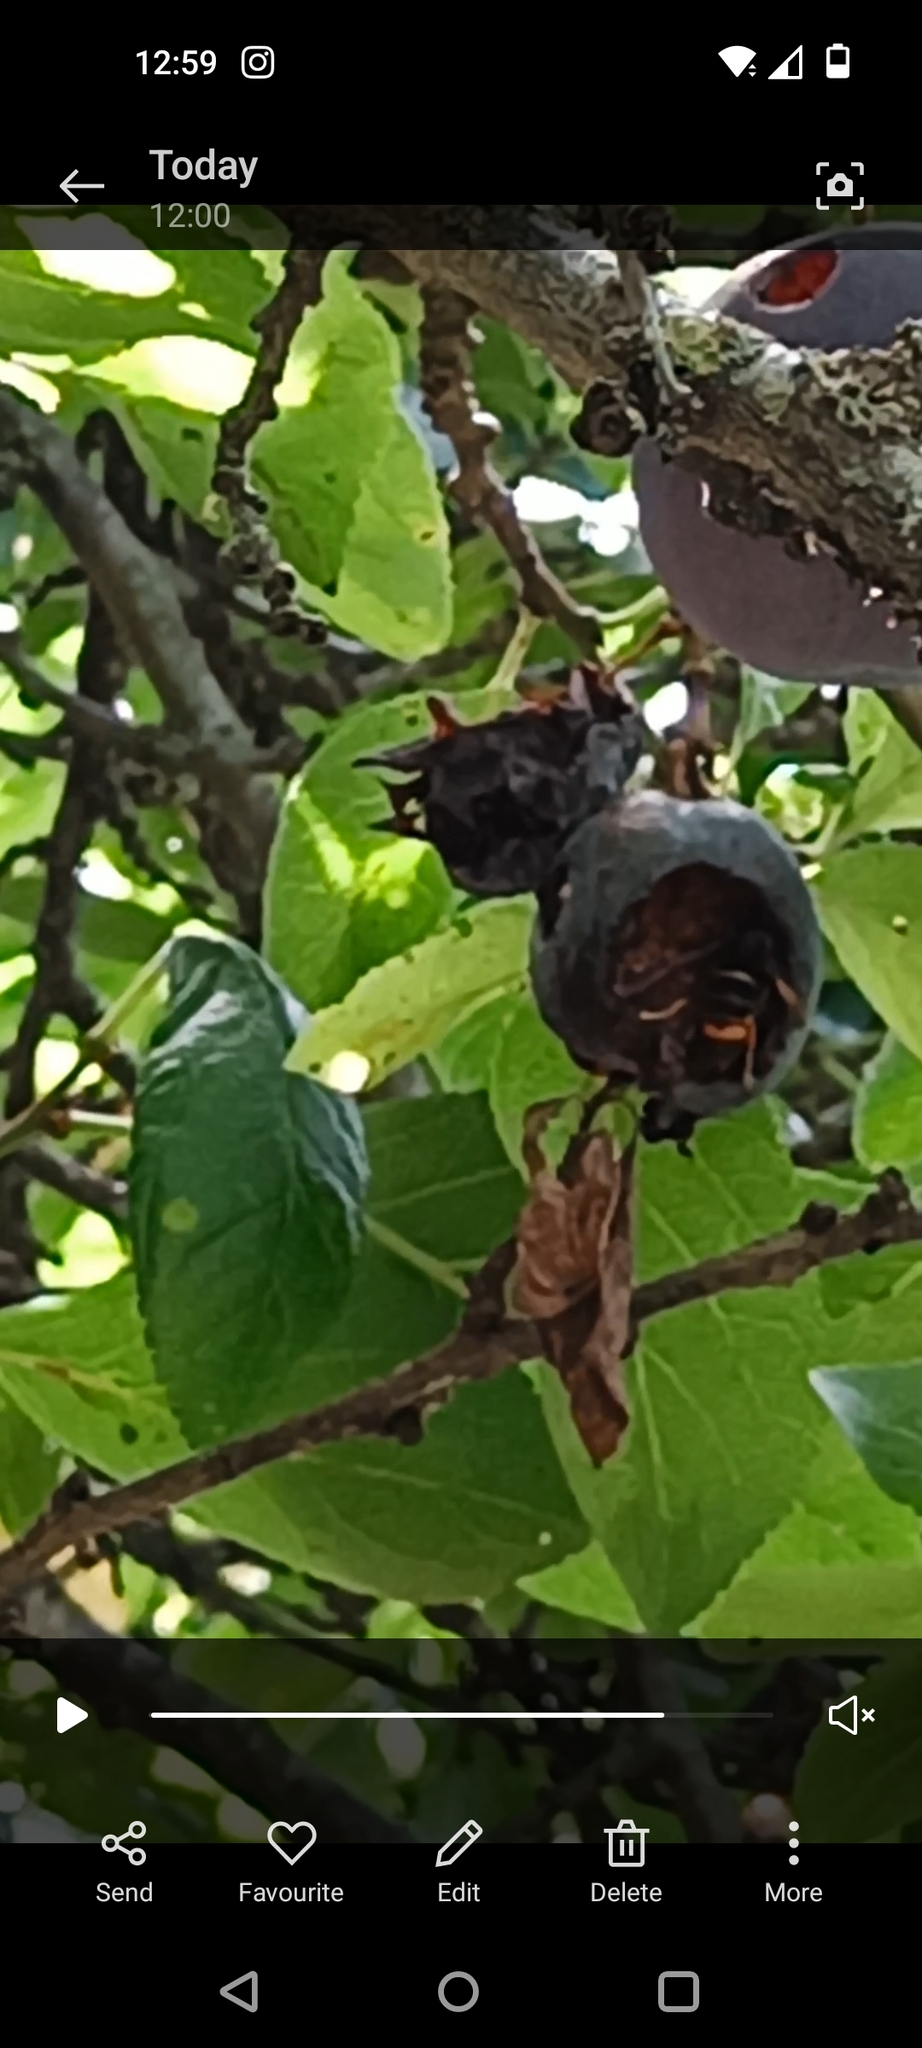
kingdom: Animalia
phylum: Arthropoda
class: Insecta
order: Hymenoptera
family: Vespidae
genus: Vespa
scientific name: Vespa velutina
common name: Asian hornet
